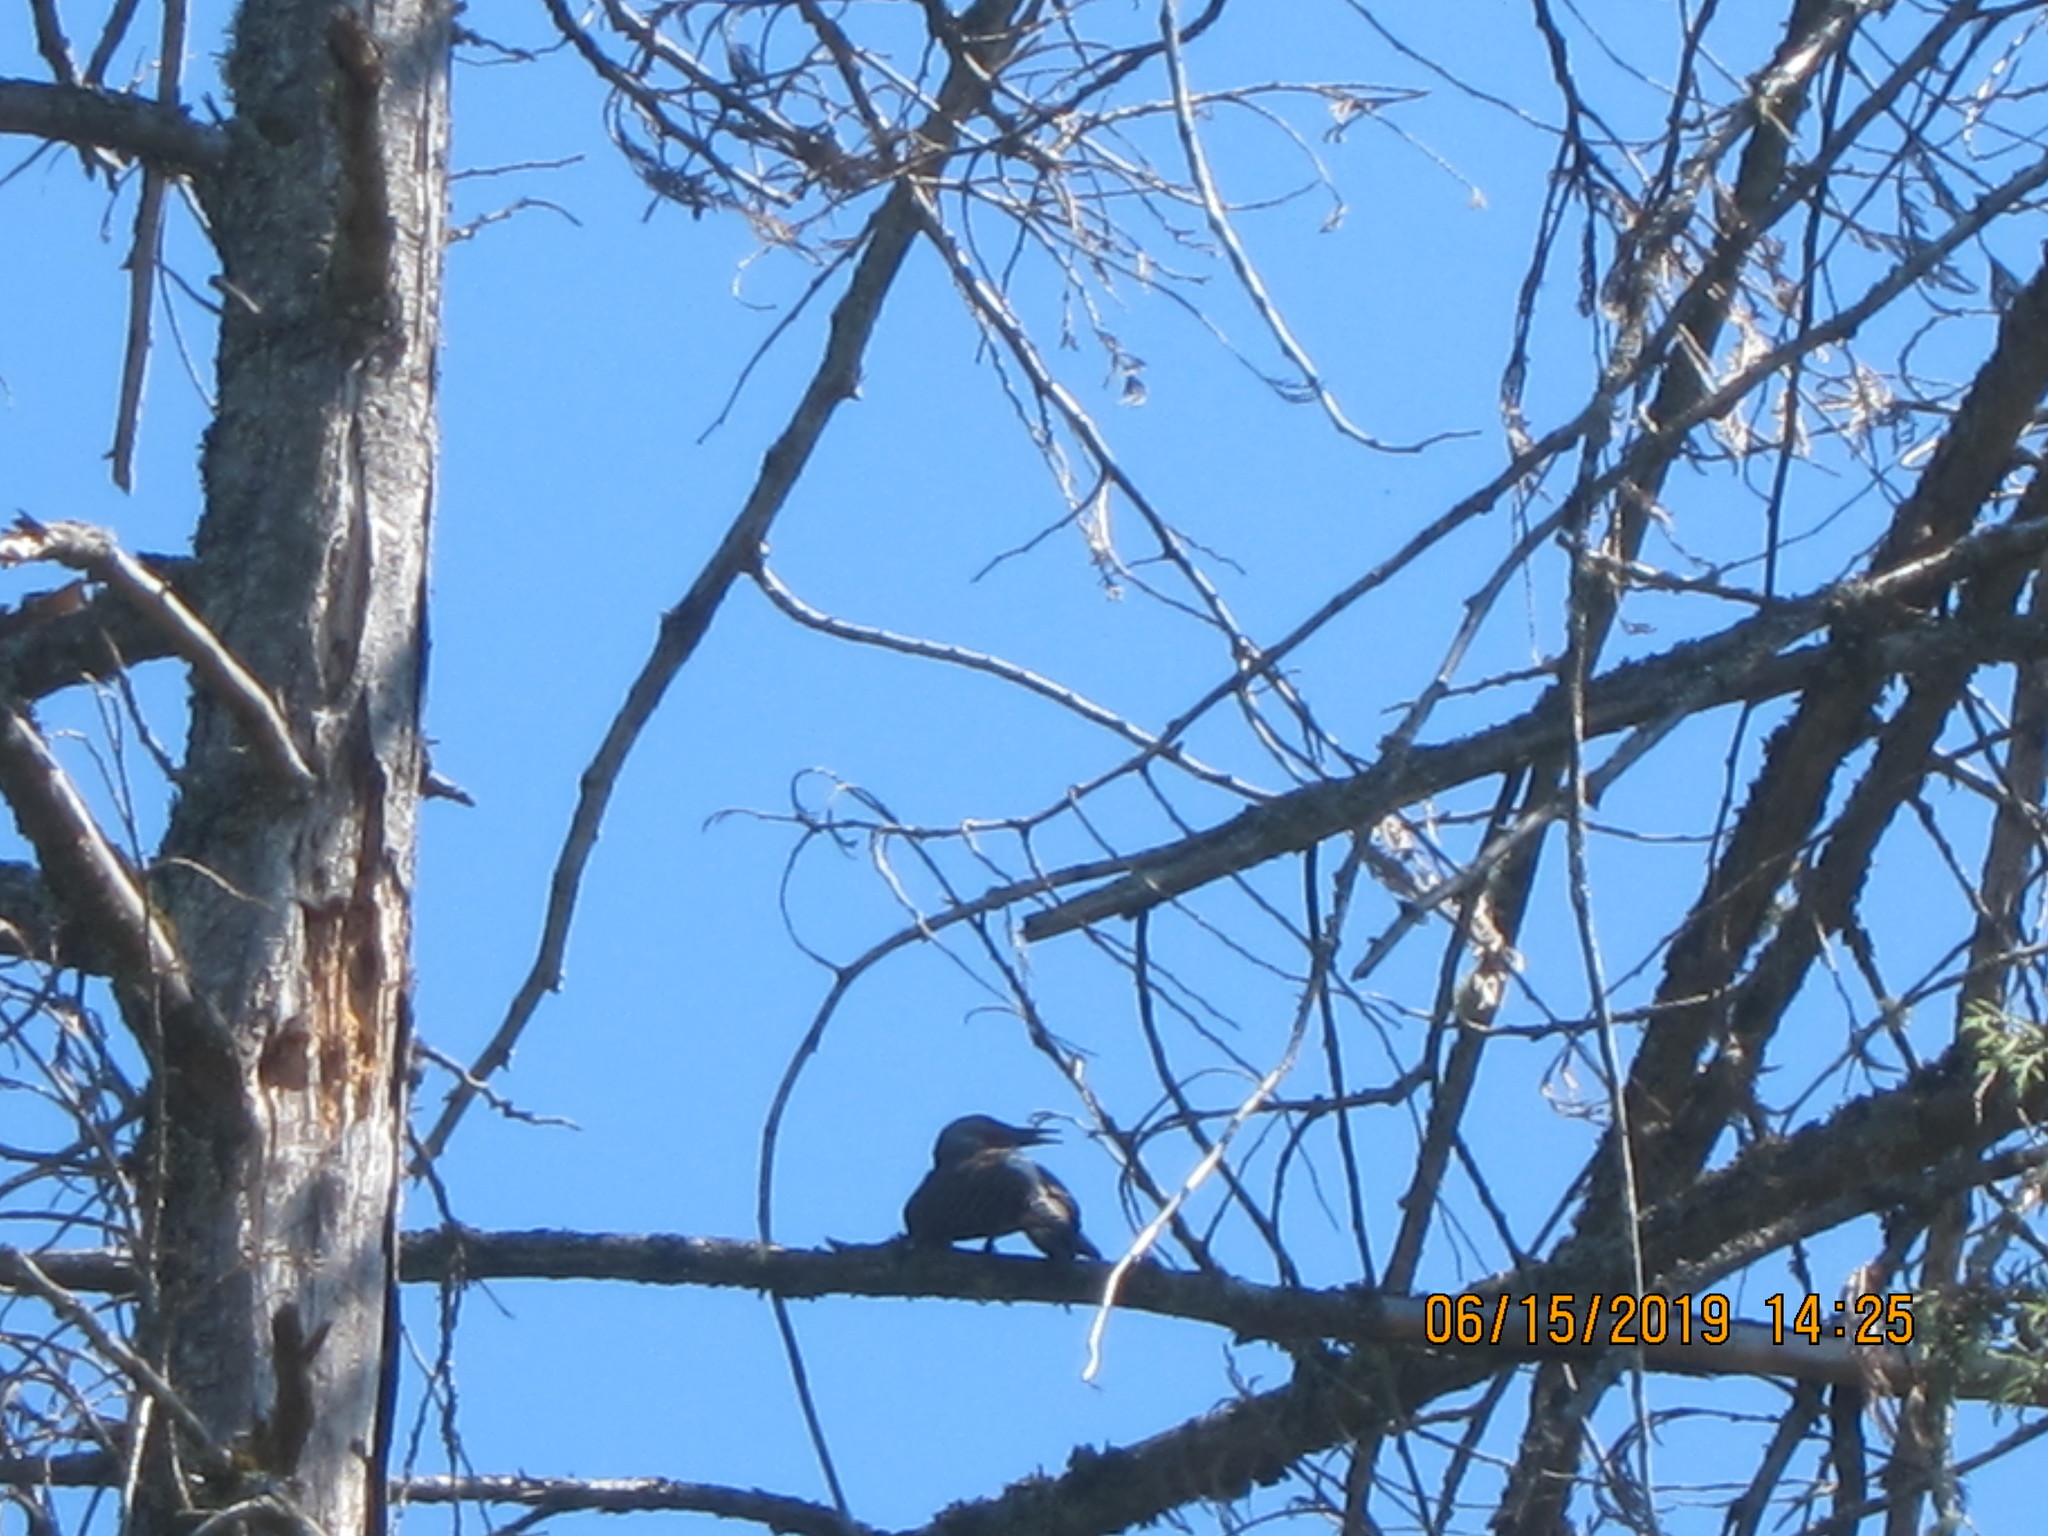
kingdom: Animalia
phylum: Chordata
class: Aves
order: Piciformes
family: Picidae
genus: Colaptes
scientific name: Colaptes auratus
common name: Northern flicker
